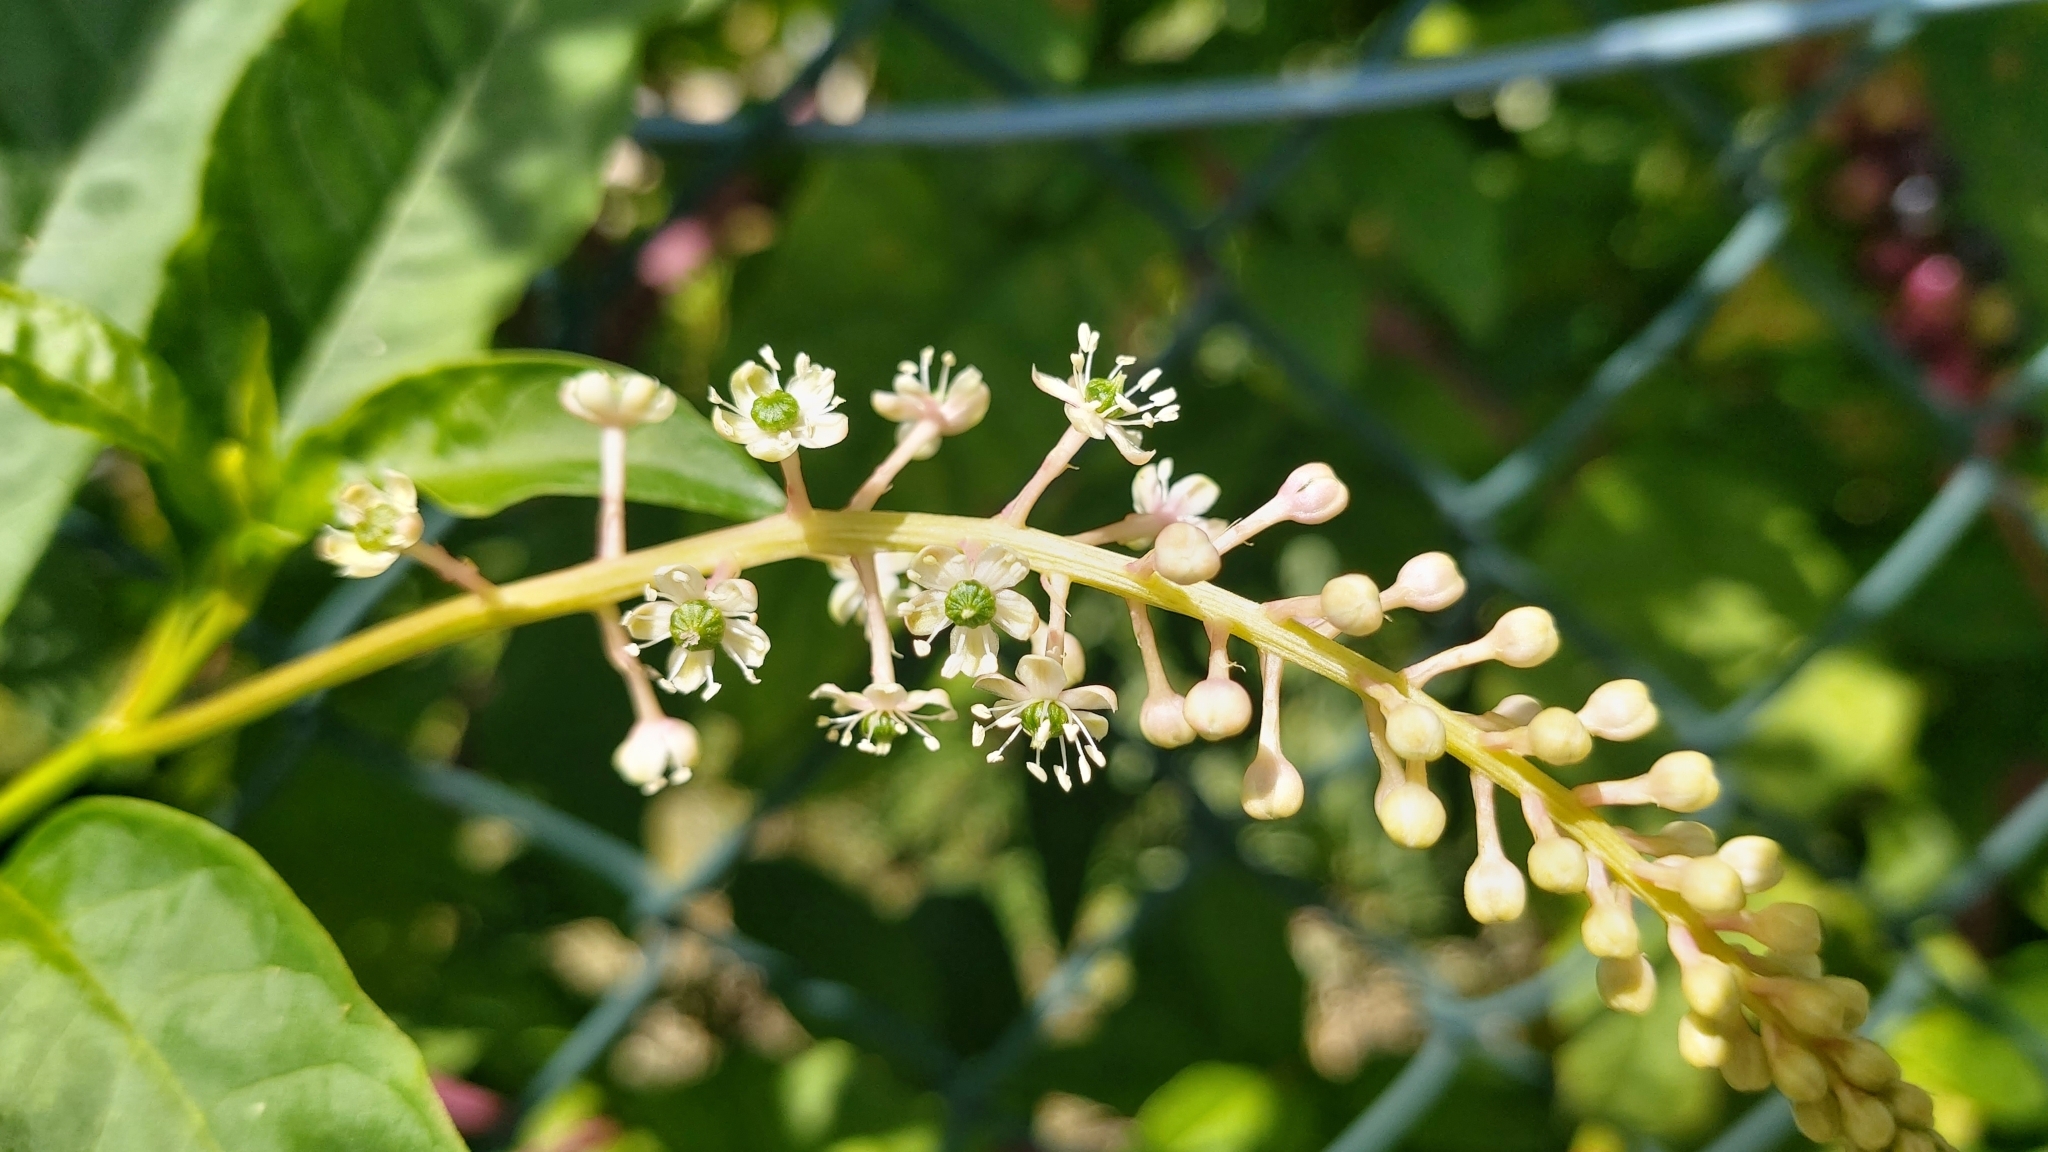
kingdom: Plantae
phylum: Tracheophyta
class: Magnoliopsida
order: Caryophyllales
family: Phytolaccaceae
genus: Phytolacca
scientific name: Phytolacca americana
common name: American pokeweed
